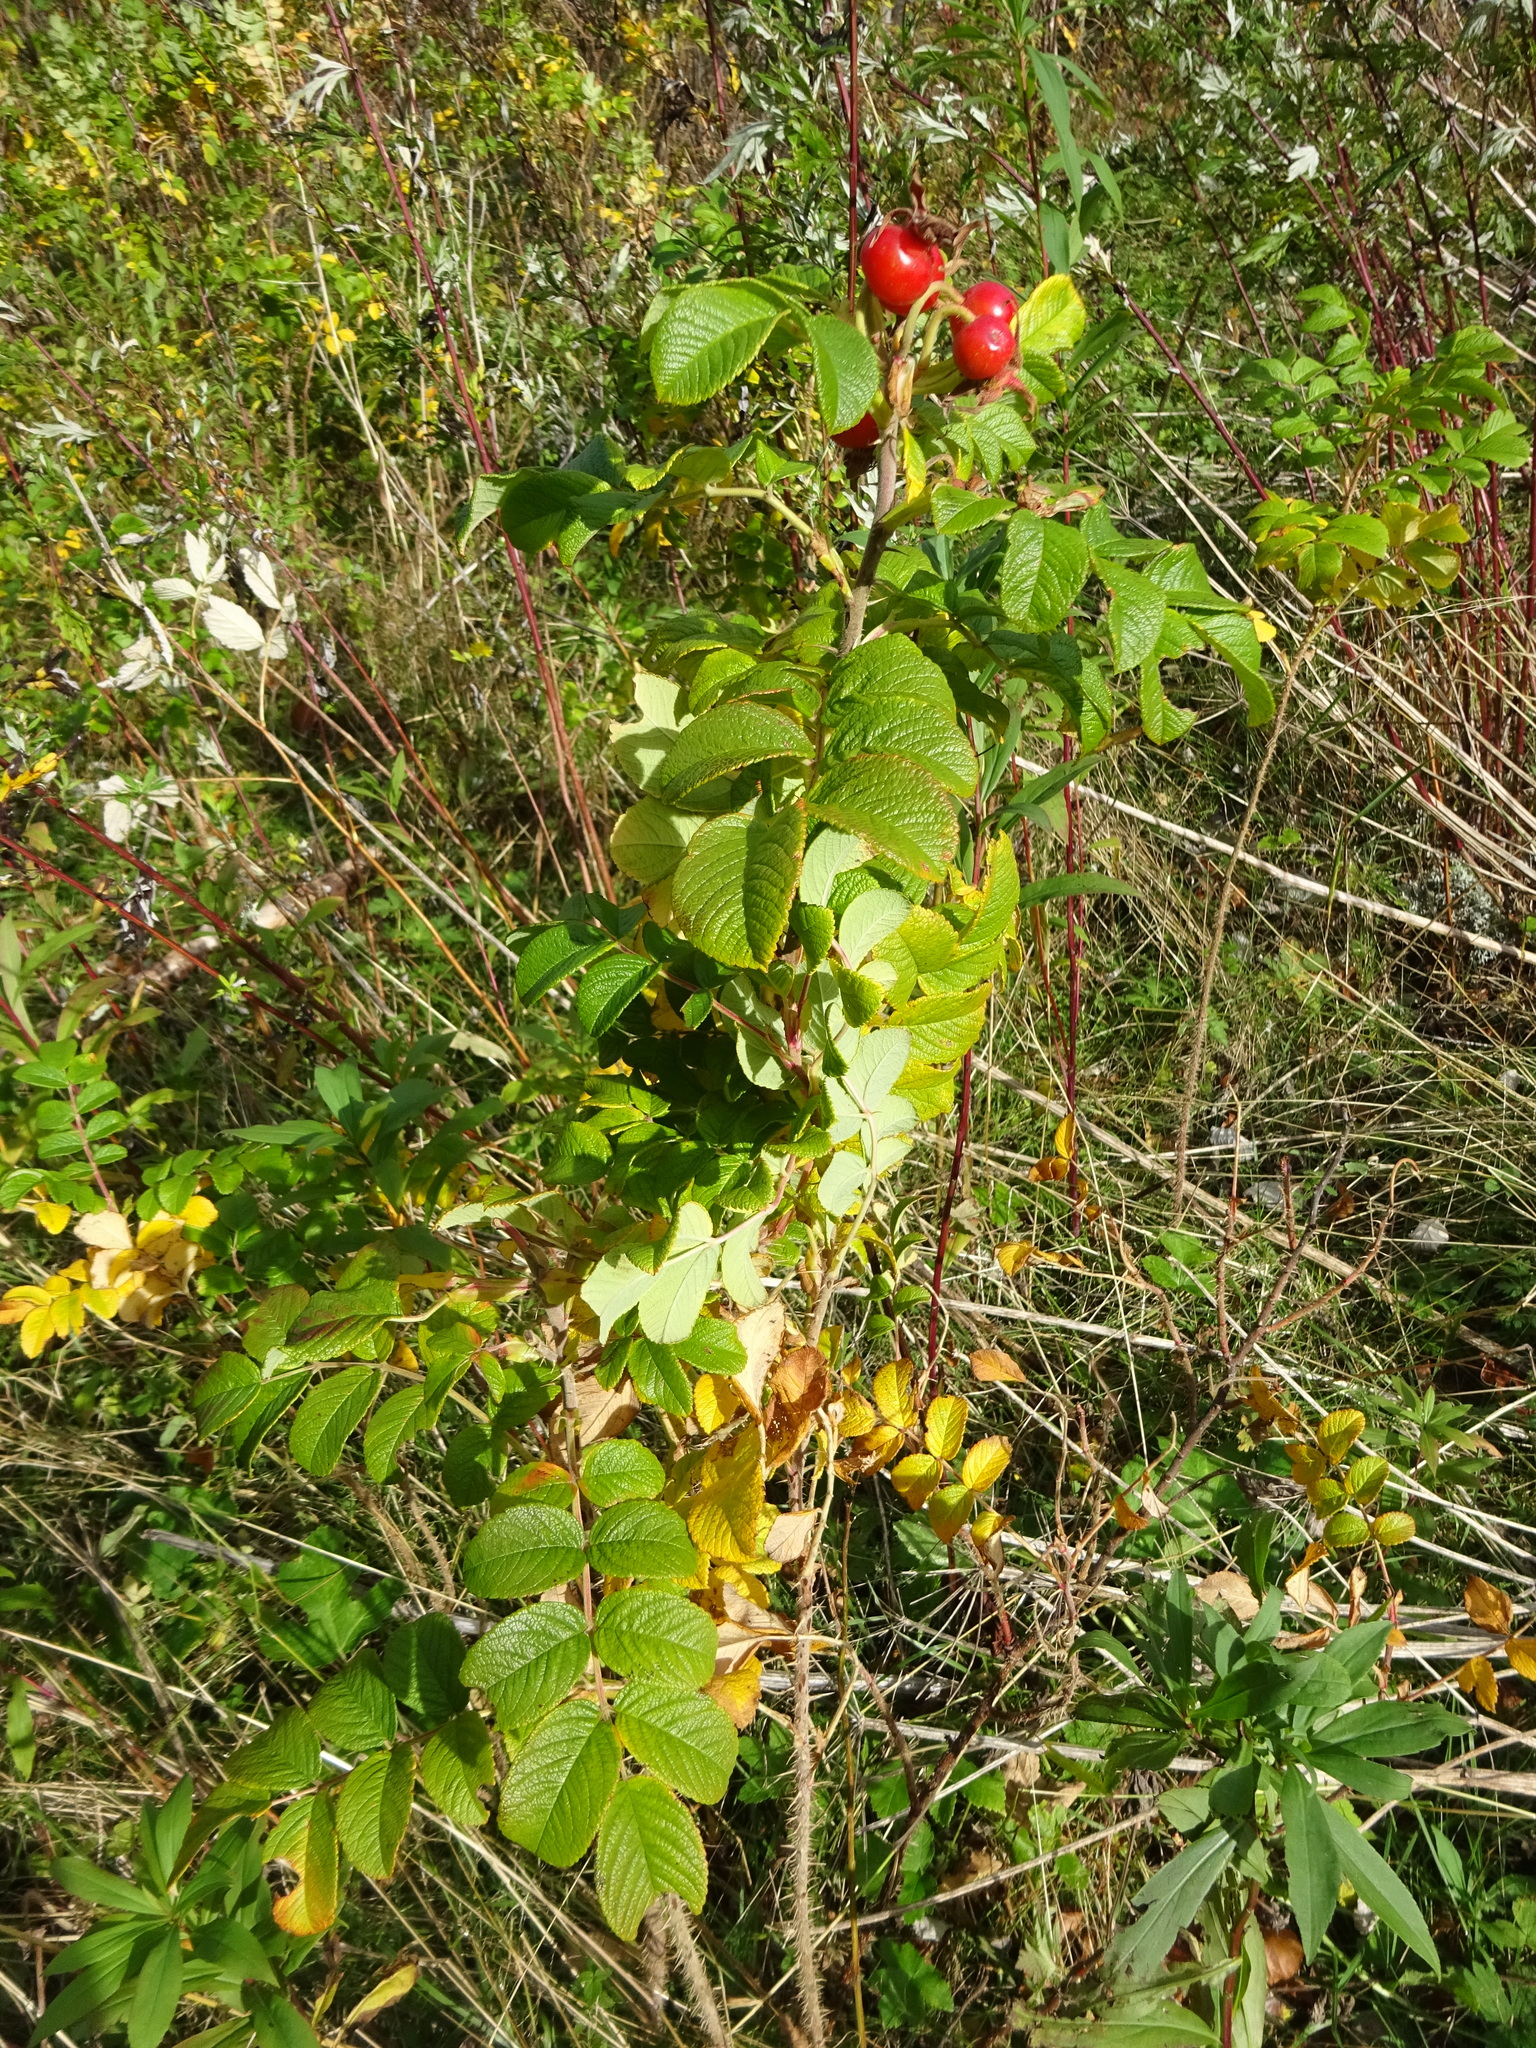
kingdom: Plantae
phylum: Tracheophyta
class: Magnoliopsida
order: Rosales
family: Rosaceae
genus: Rosa
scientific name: Rosa rugosa
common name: Japanese rose
